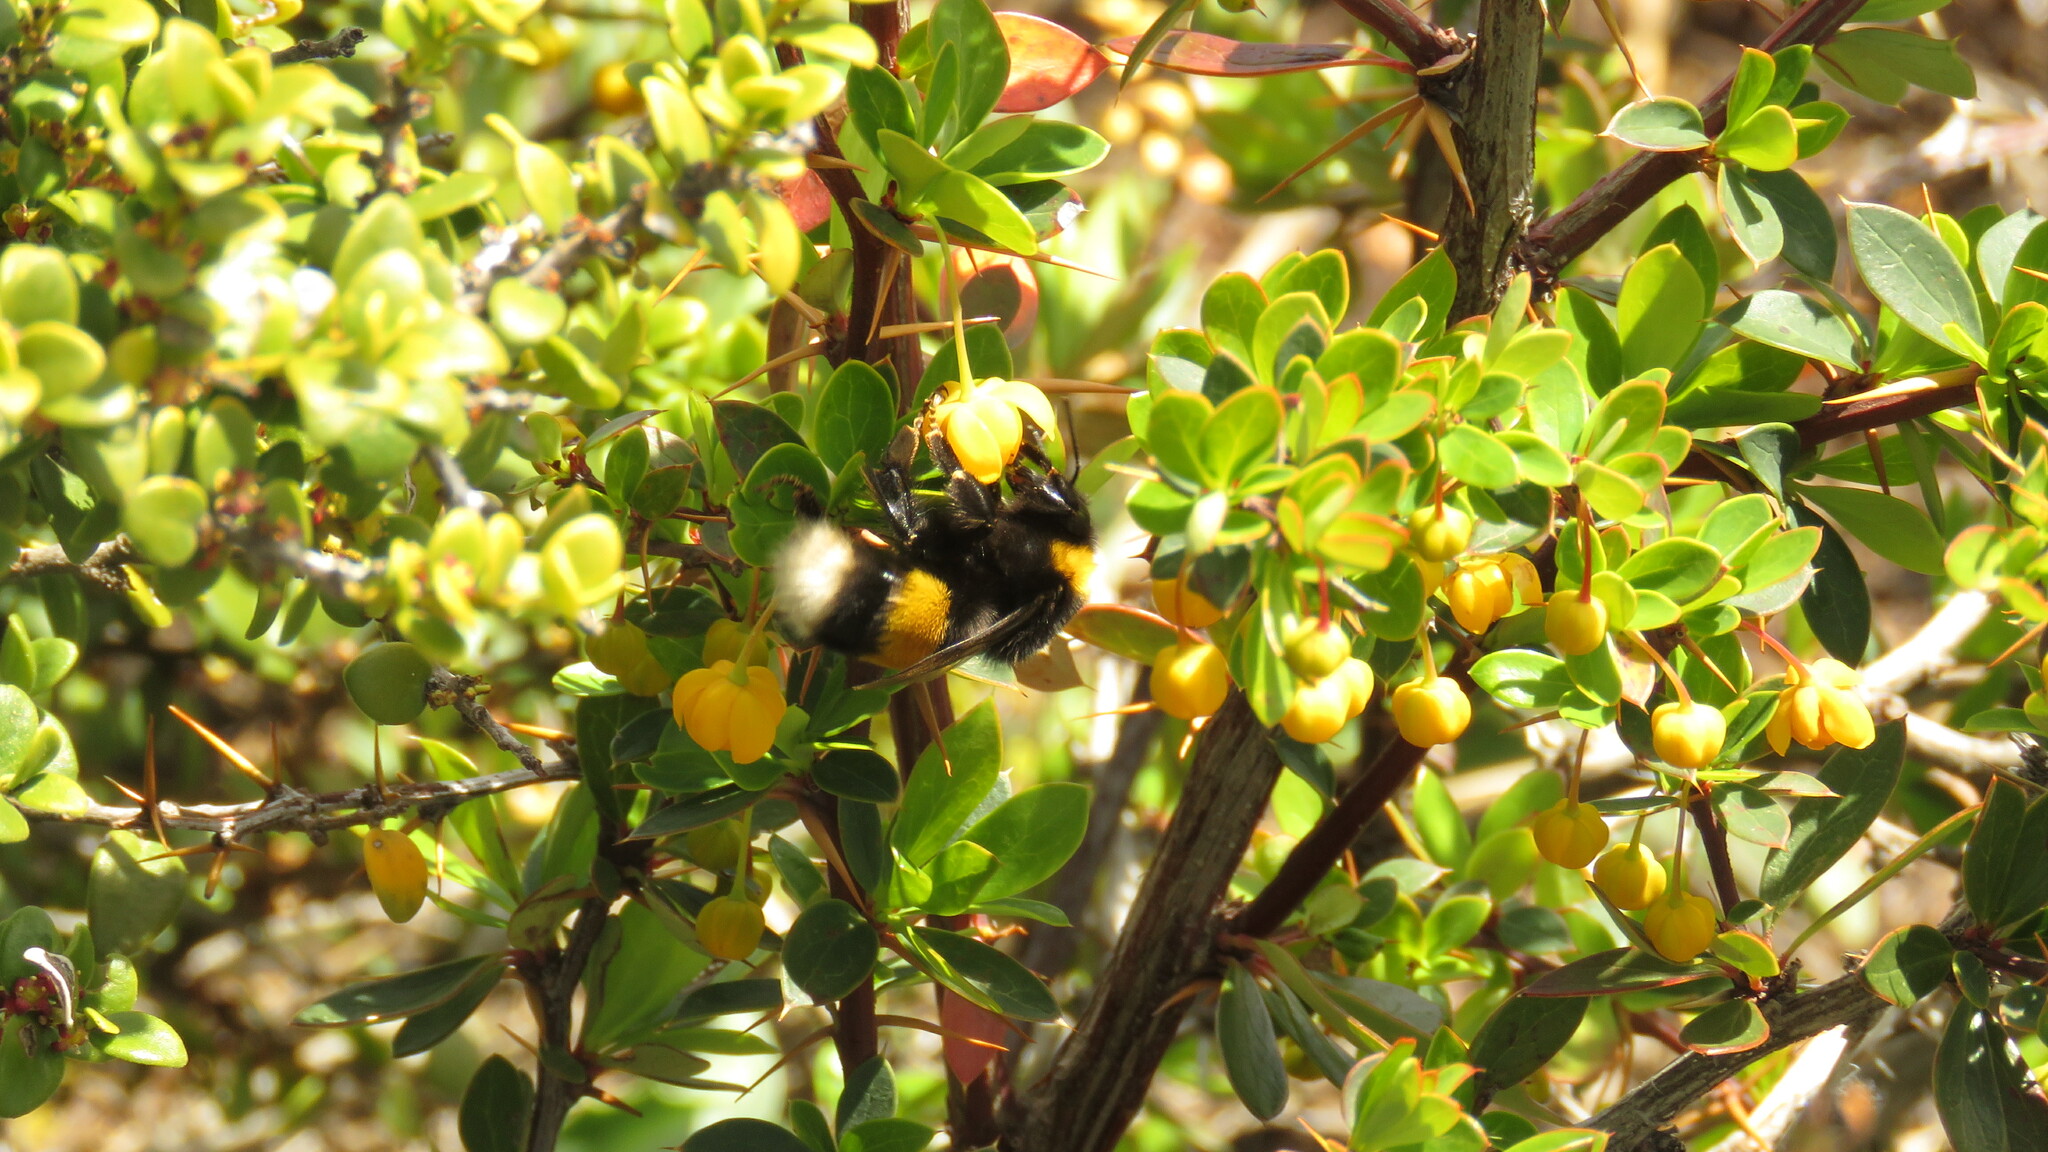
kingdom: Animalia
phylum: Arthropoda
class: Insecta
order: Hymenoptera
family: Apidae
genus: Bombus
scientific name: Bombus terrestris
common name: Buff-tailed bumblebee
